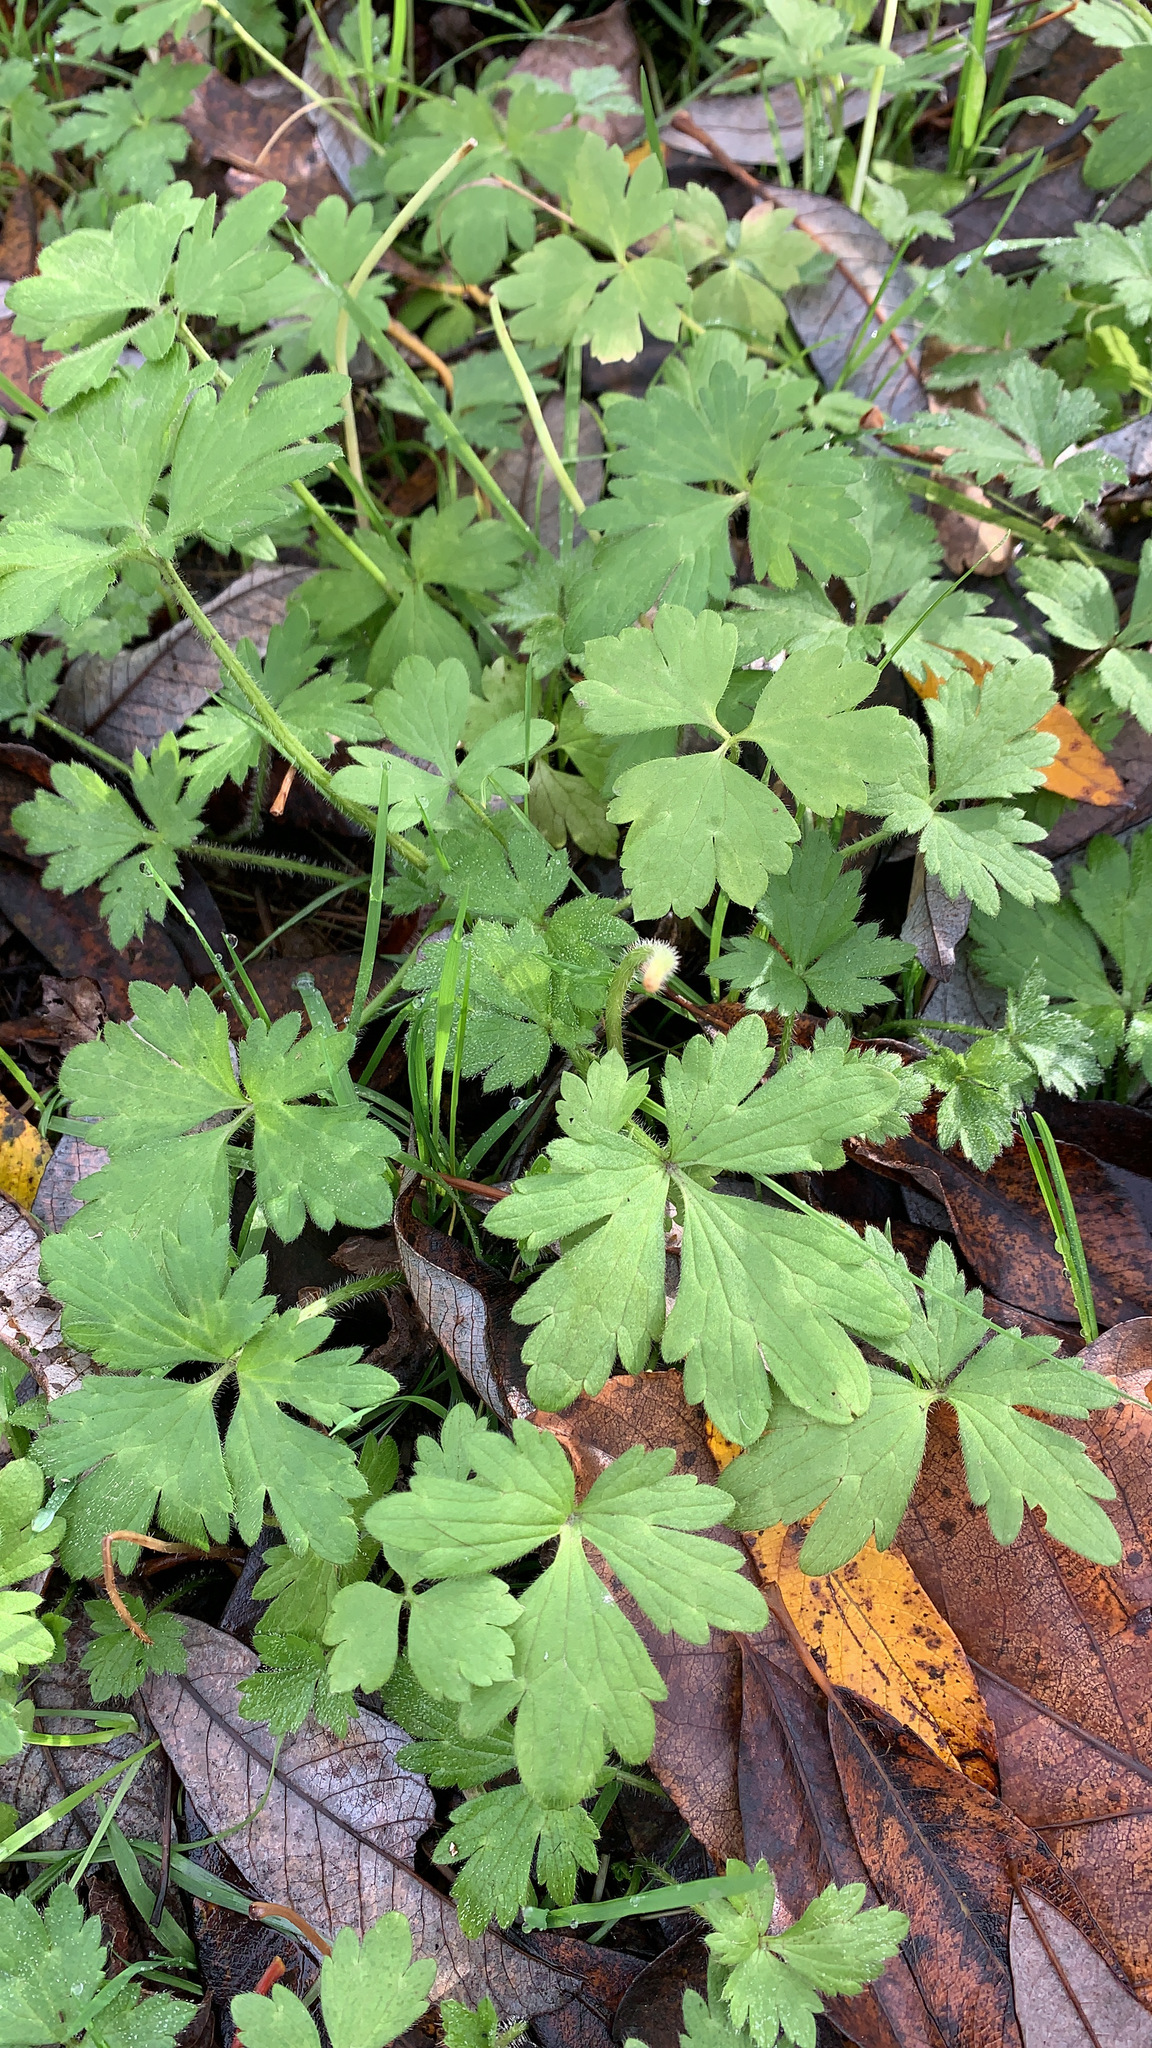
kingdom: Plantae
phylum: Tracheophyta
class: Magnoliopsida
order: Ranunculales
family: Ranunculaceae
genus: Ranunculus
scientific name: Ranunculus repens
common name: Creeping buttercup
